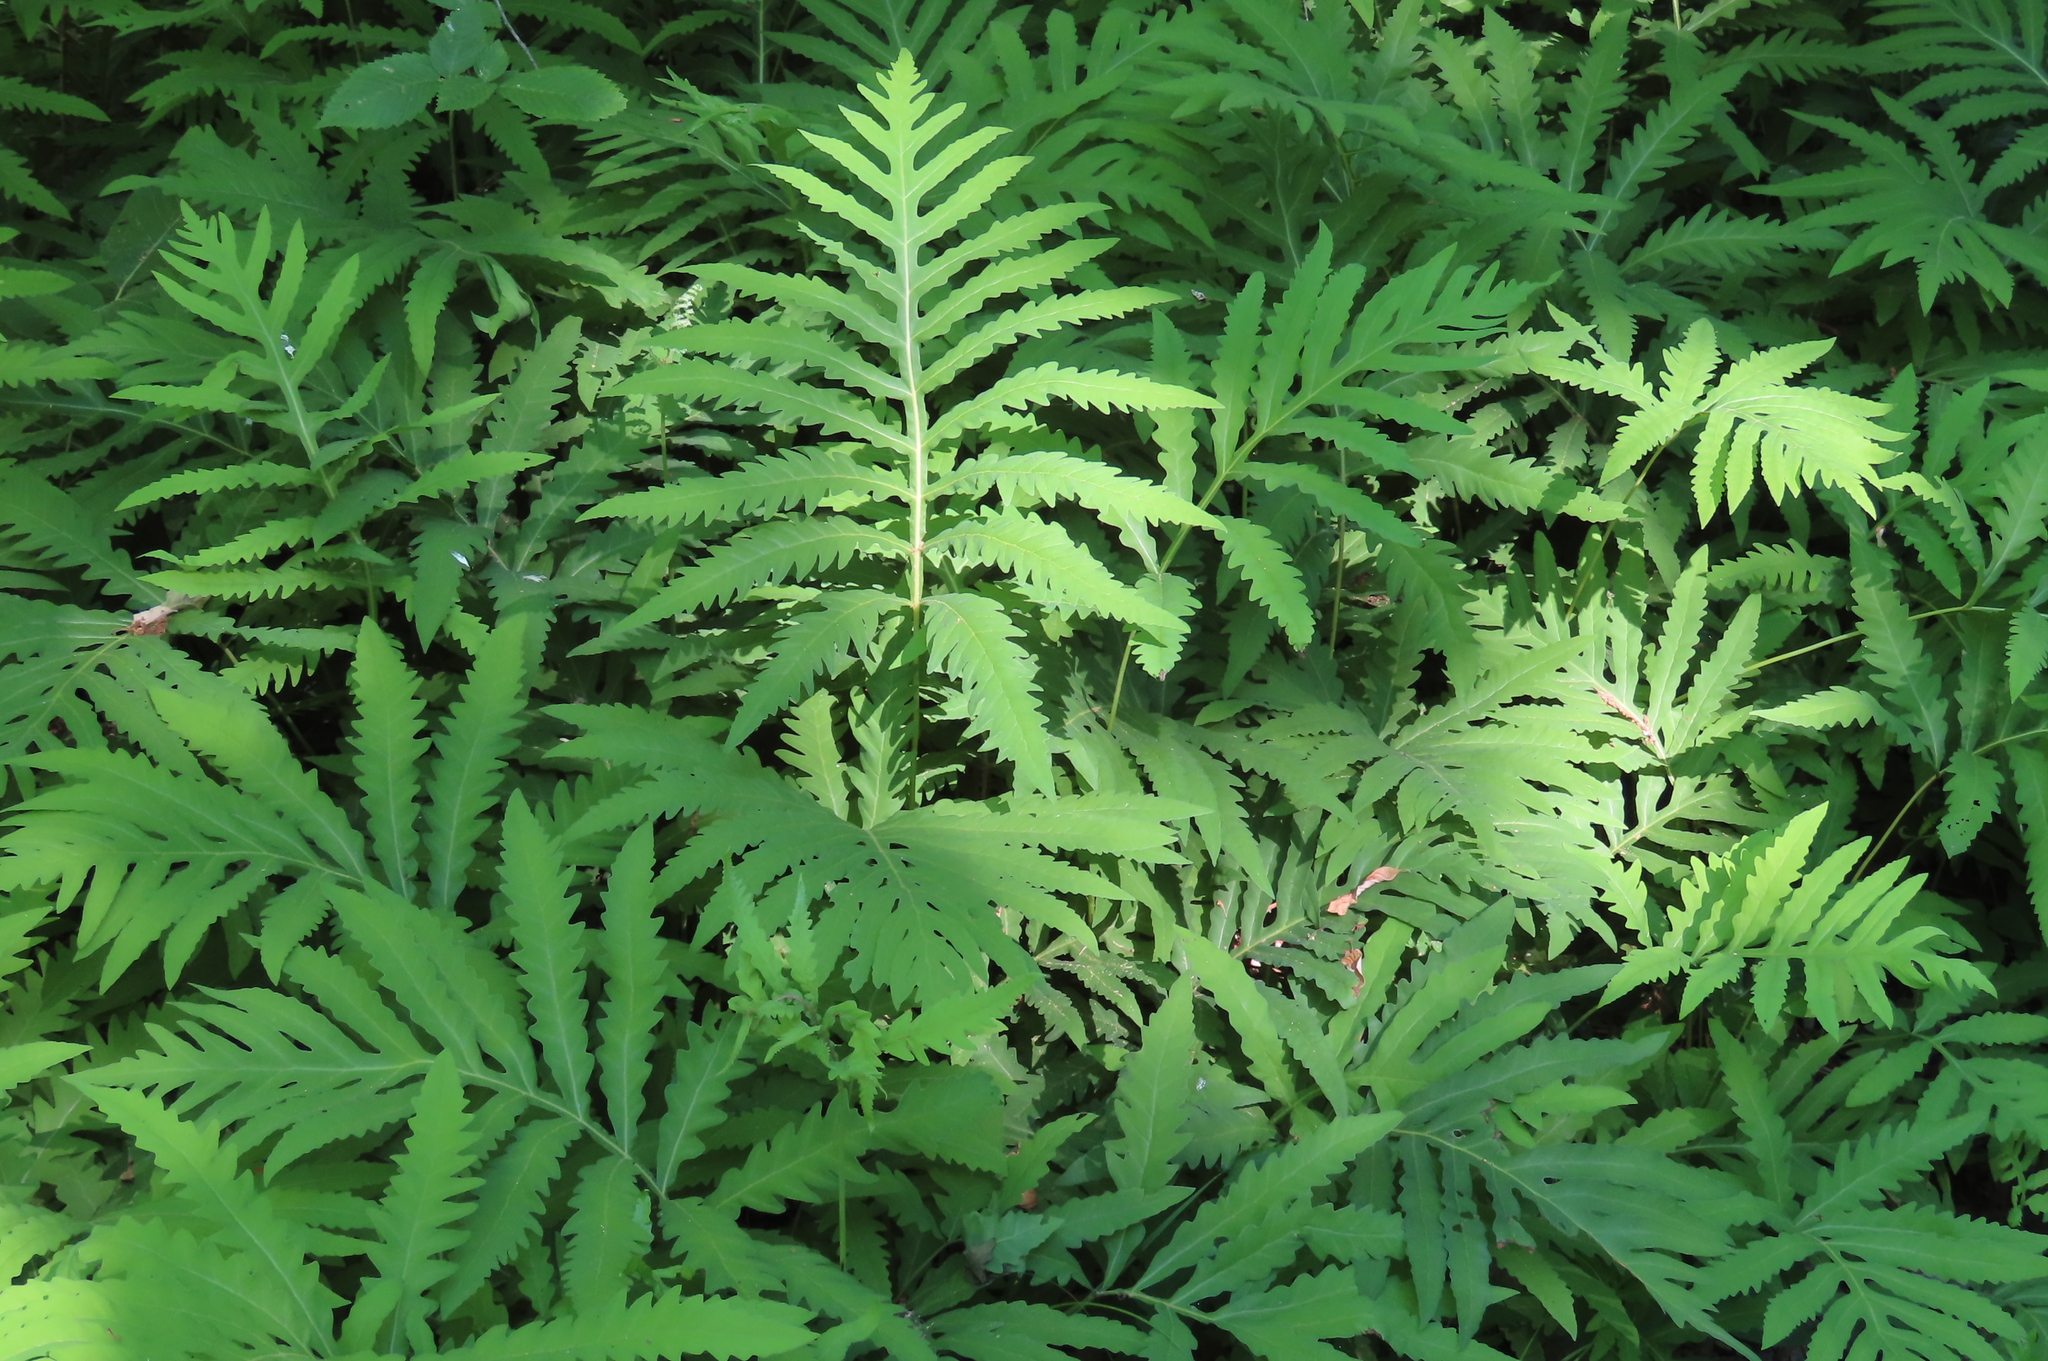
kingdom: Plantae
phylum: Tracheophyta
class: Polypodiopsida
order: Polypodiales
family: Onocleaceae
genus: Onoclea
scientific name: Onoclea sensibilis
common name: Sensitive fern
